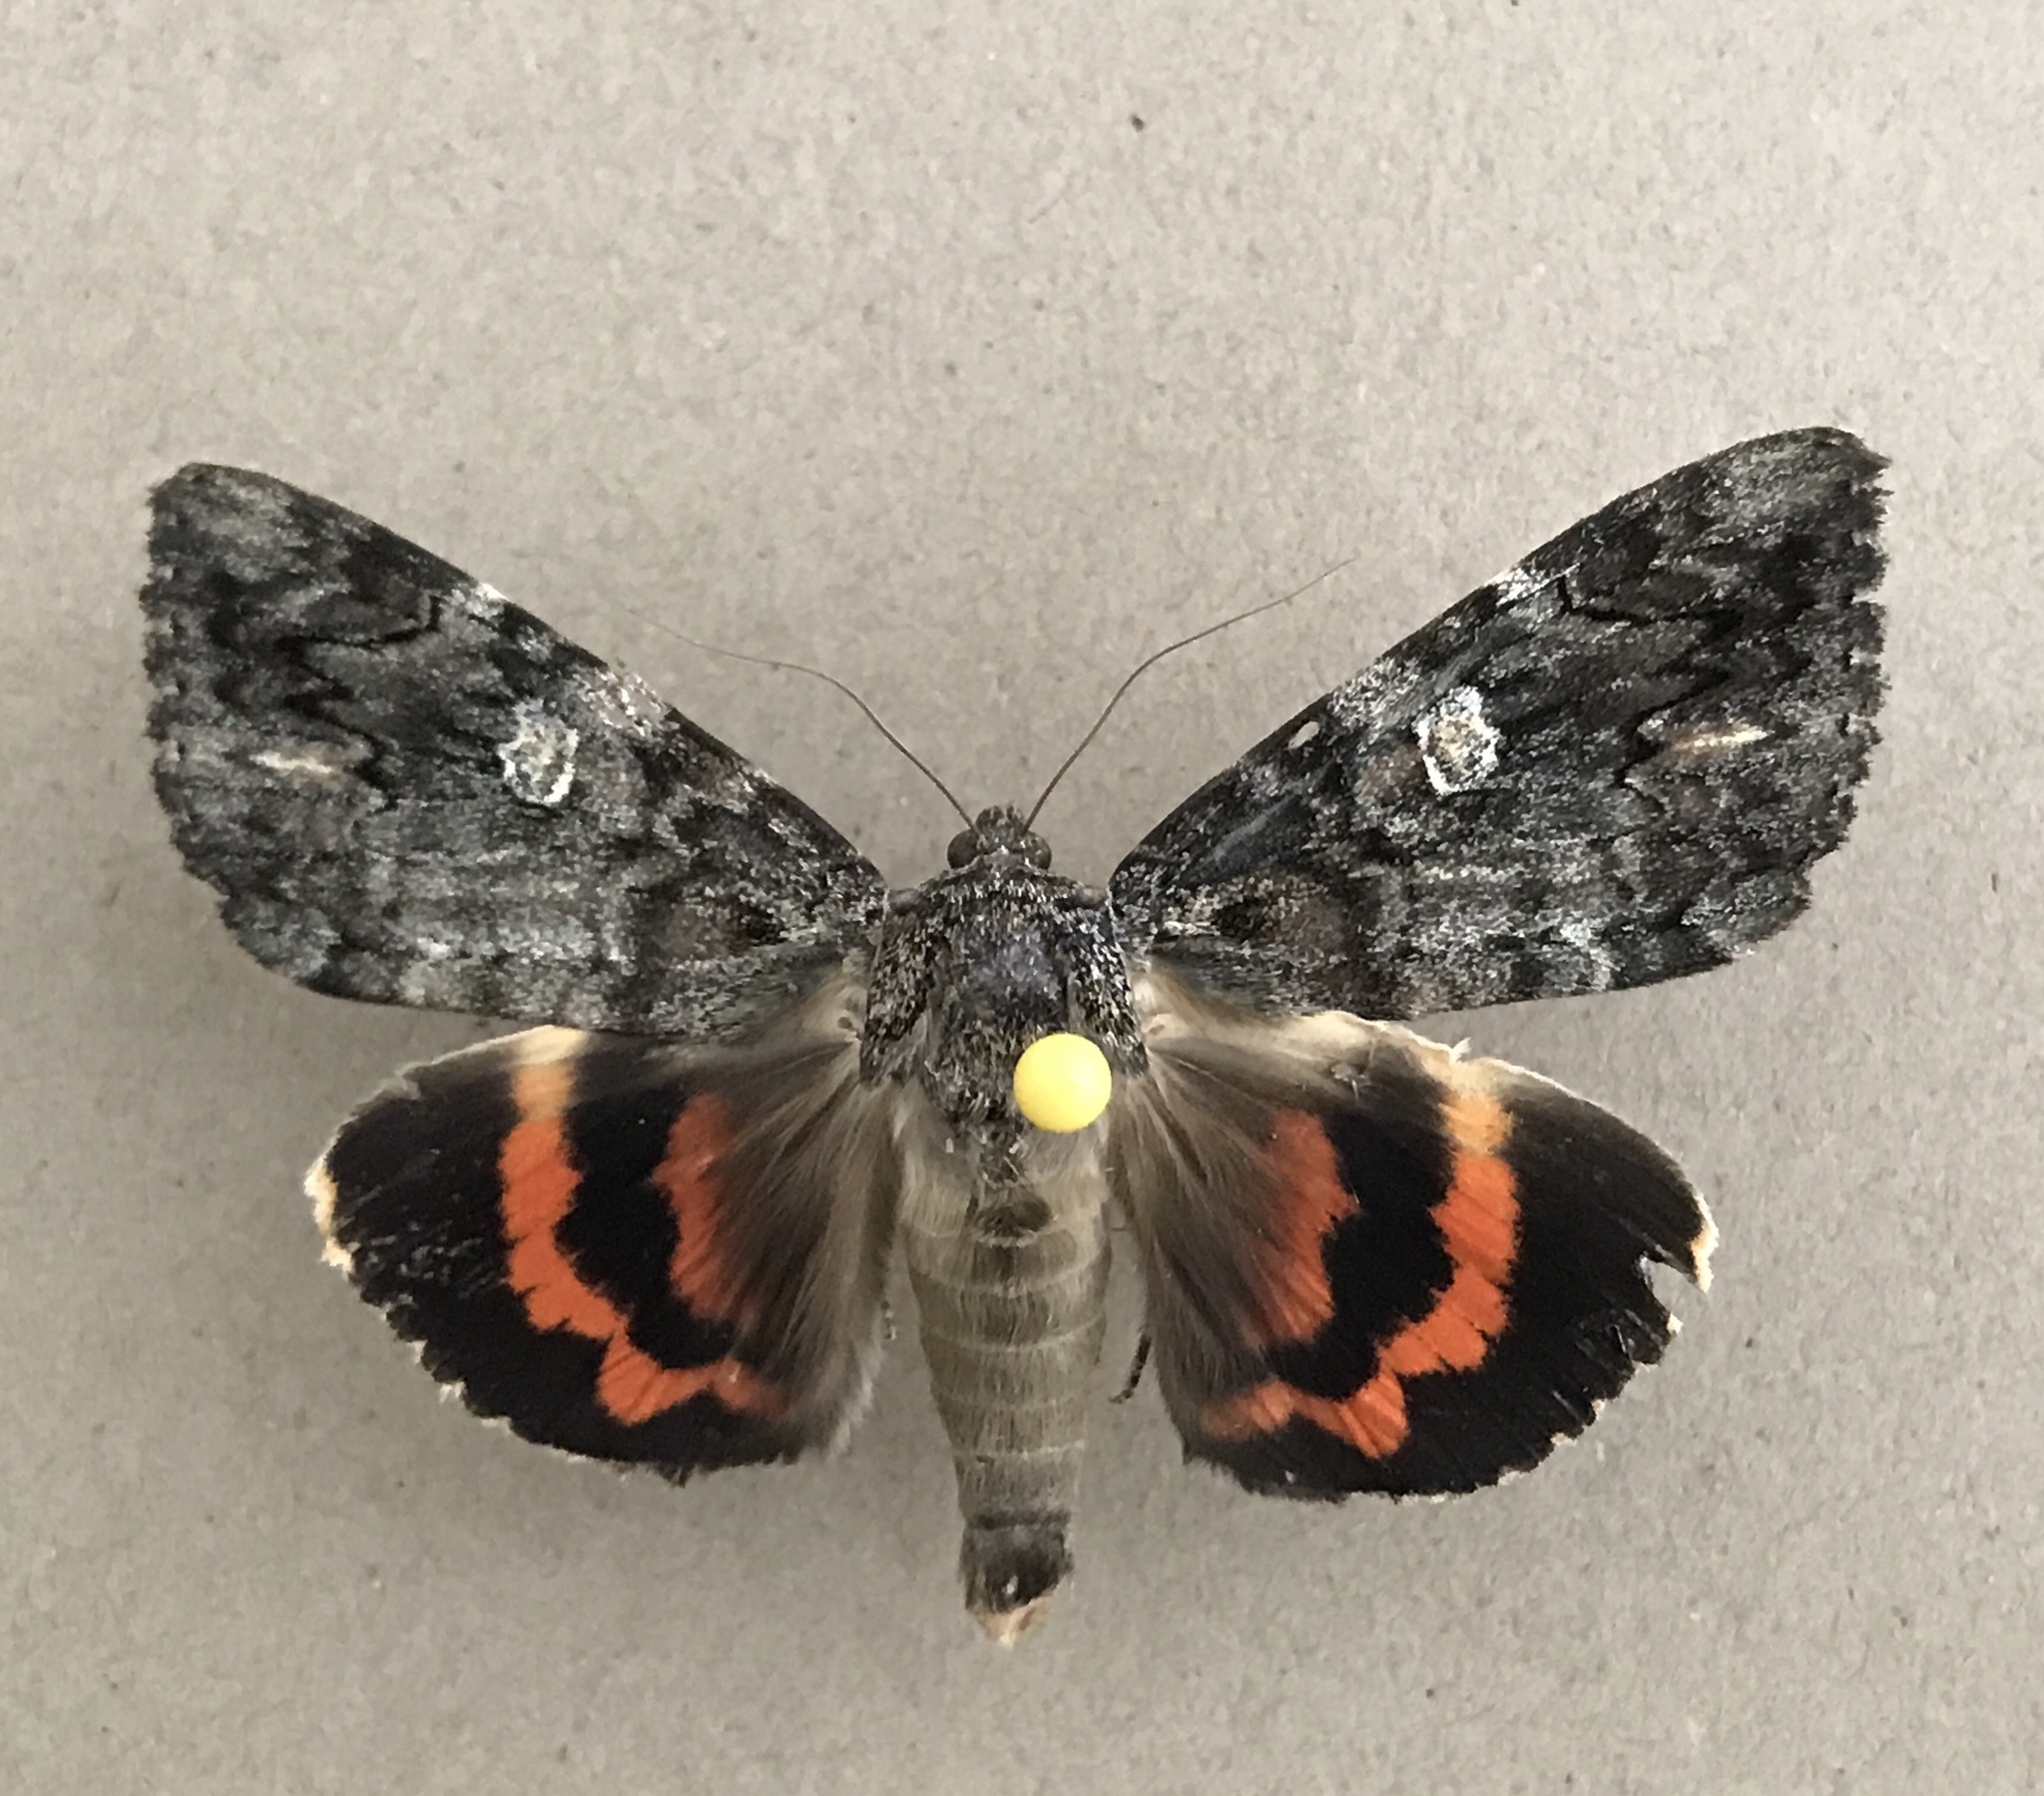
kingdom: Animalia
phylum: Arthropoda
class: Insecta
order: Lepidoptera
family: Erebidae
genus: Catocala
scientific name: Catocala ilia
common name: Ilia underwing
